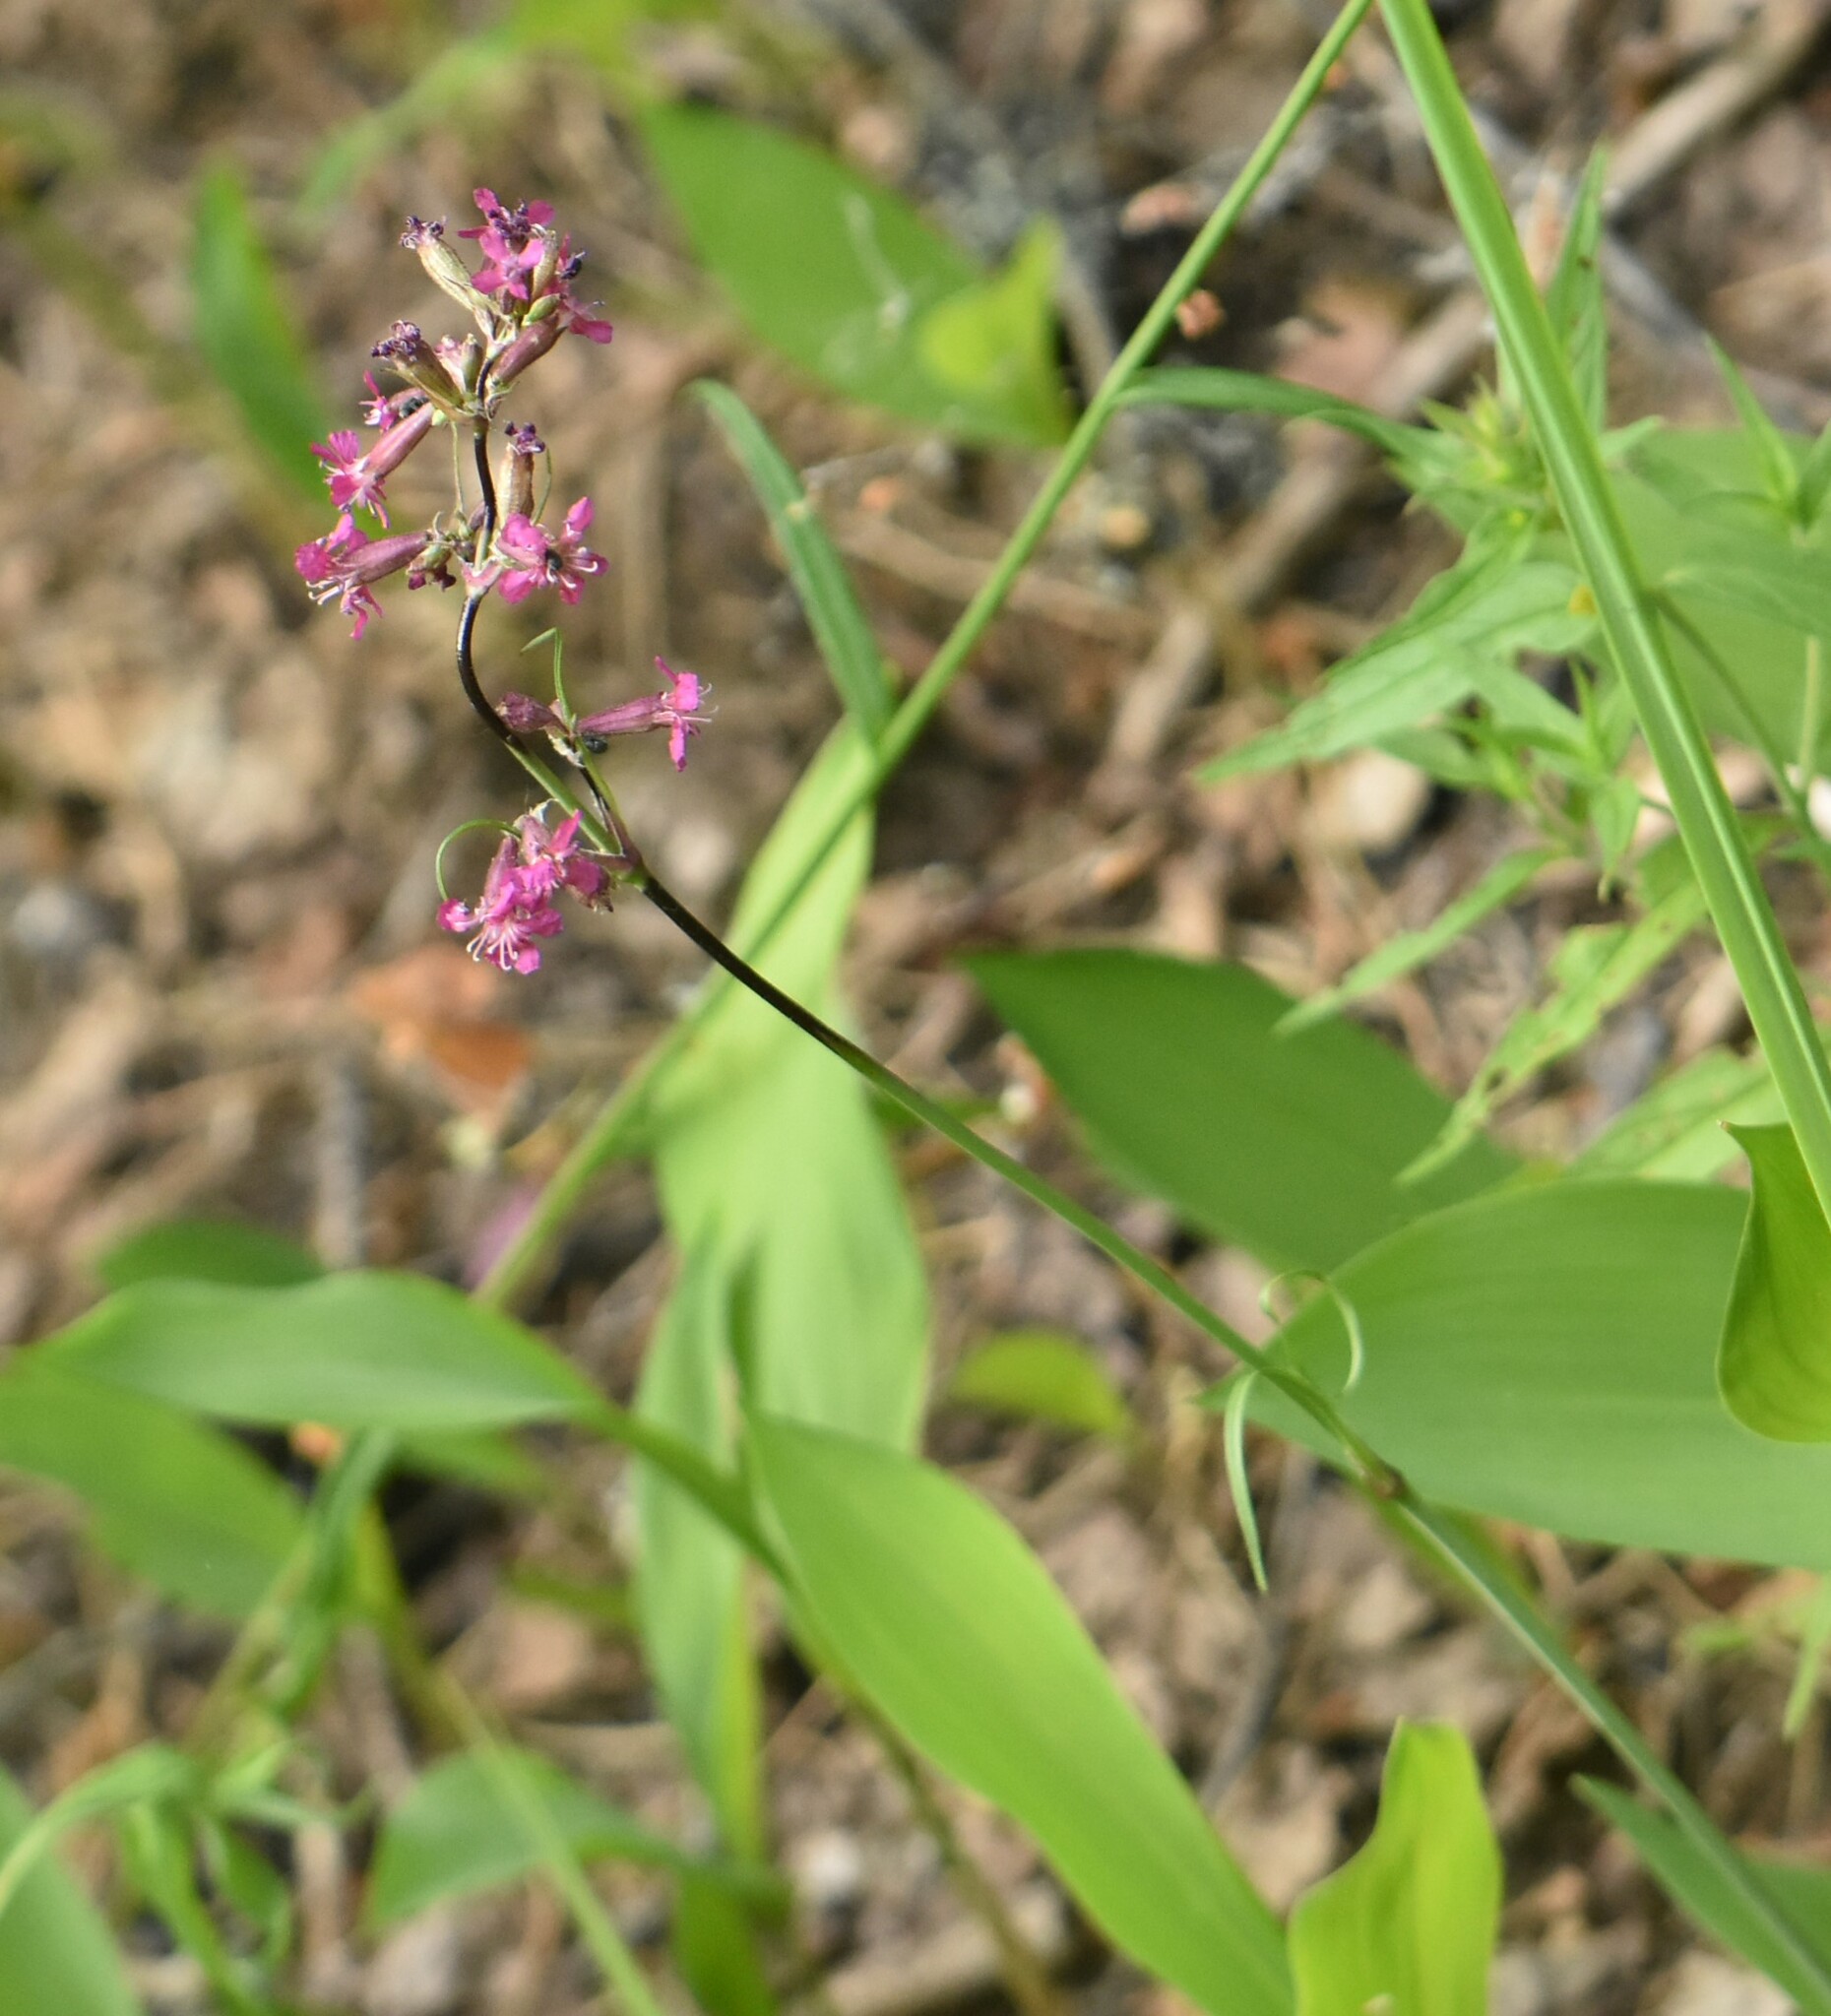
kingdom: Plantae
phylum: Tracheophyta
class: Magnoliopsida
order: Caryophyllales
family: Caryophyllaceae
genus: Viscaria
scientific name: Viscaria vulgaris
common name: Clammy campion
